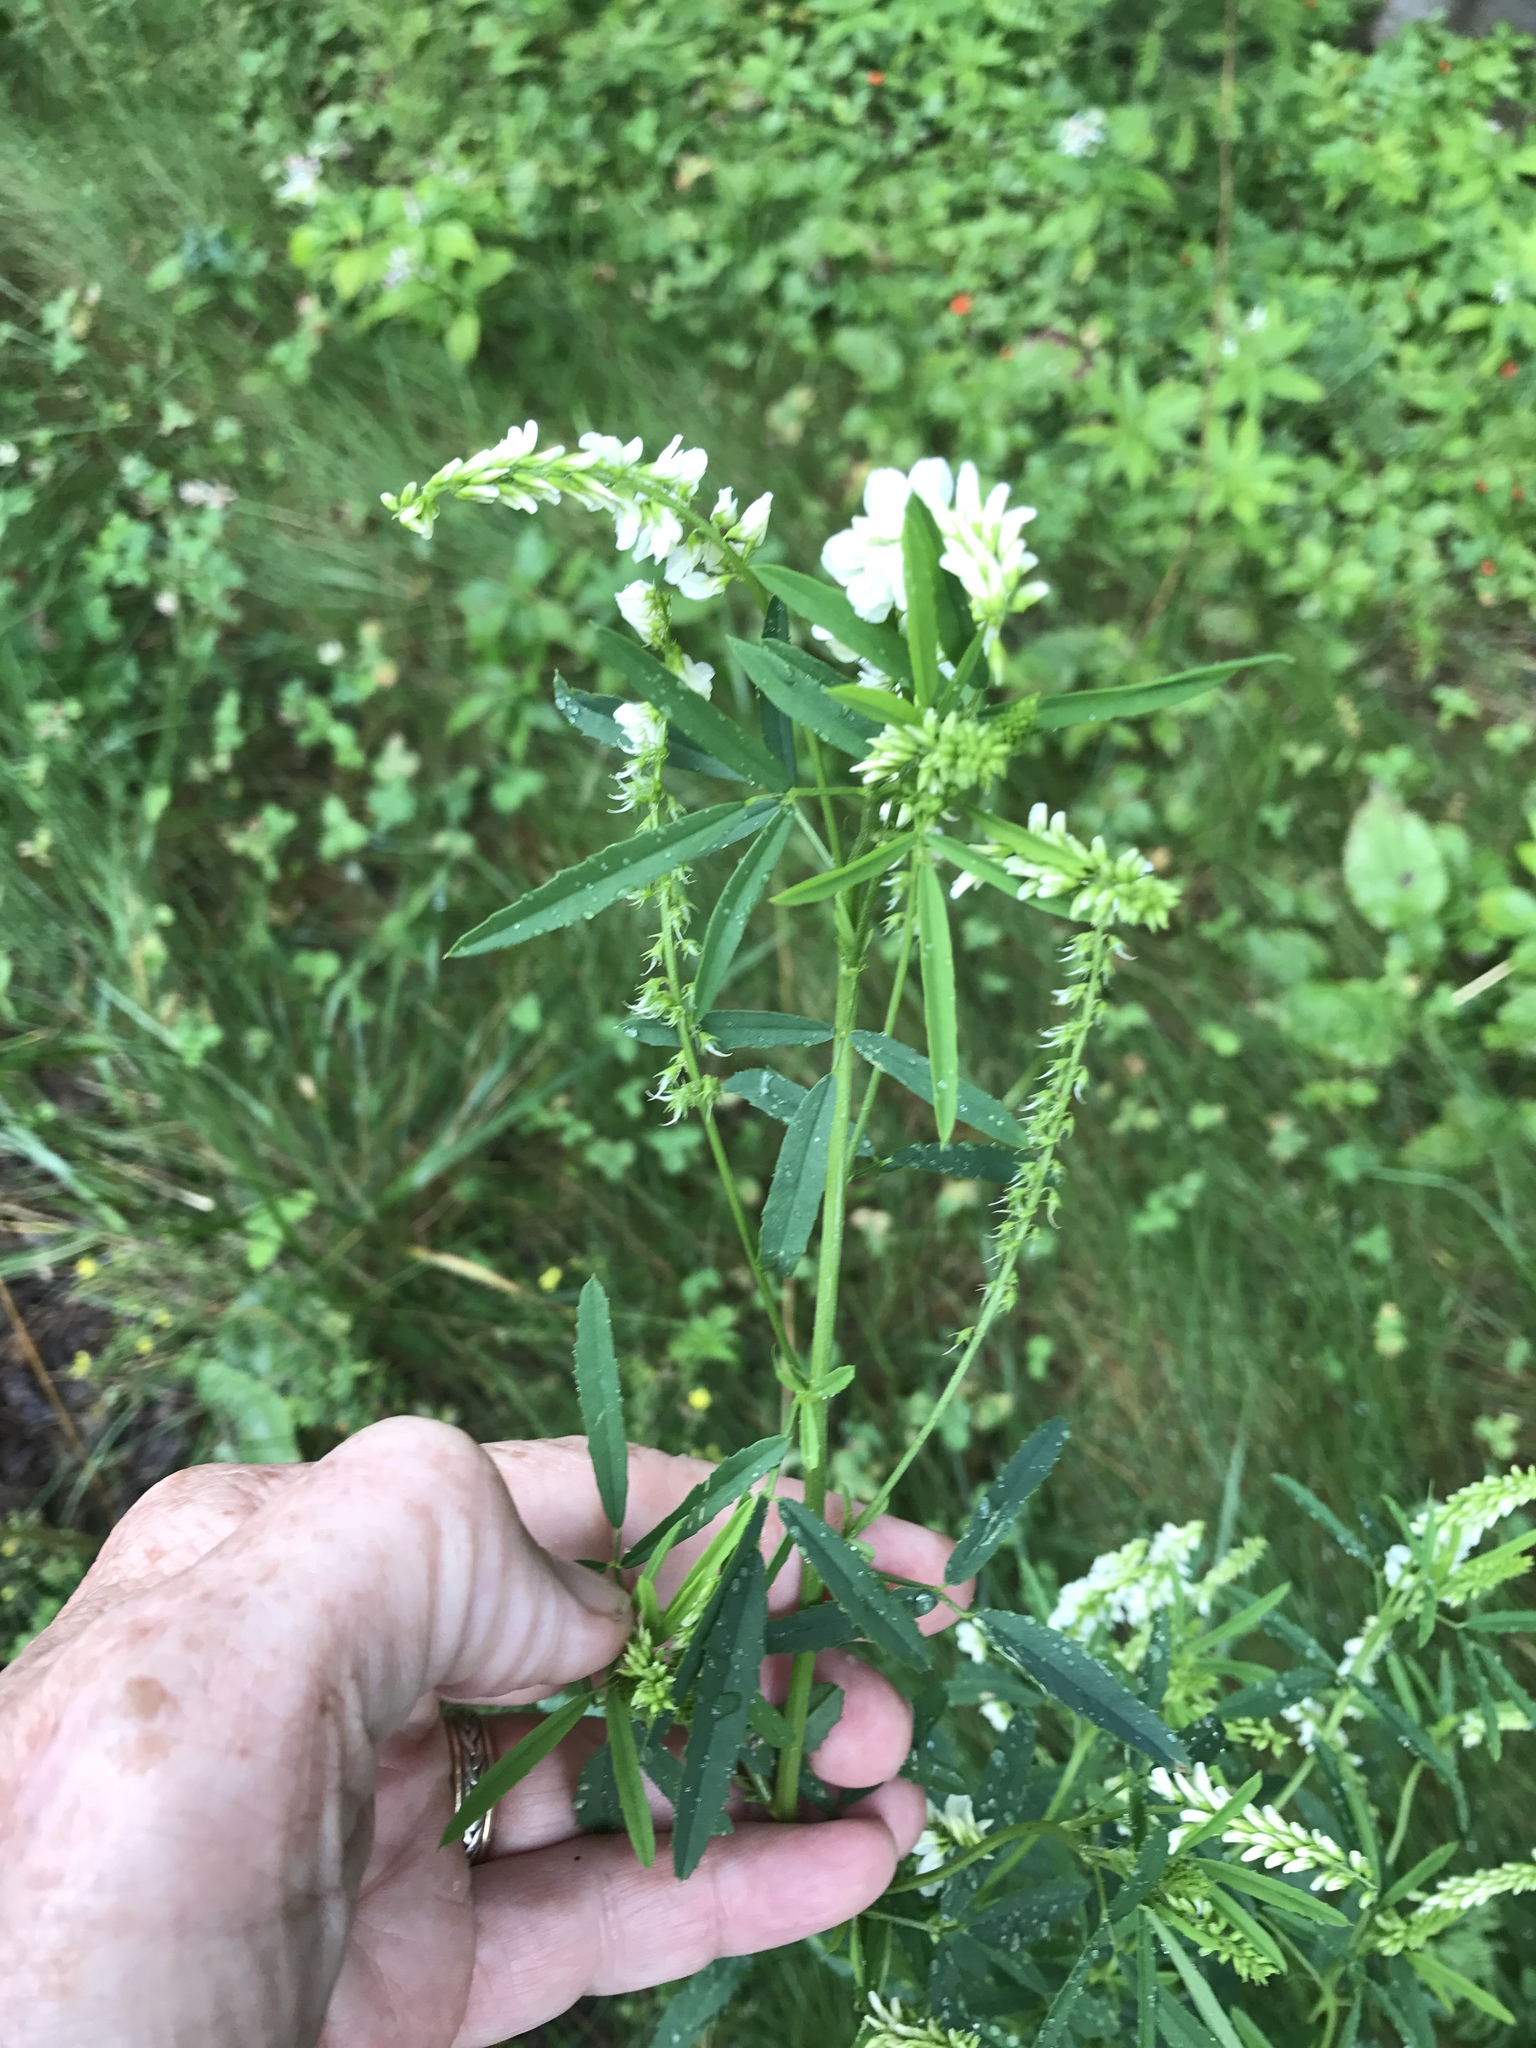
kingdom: Plantae
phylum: Tracheophyta
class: Magnoliopsida
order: Fabales
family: Fabaceae
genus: Melilotus
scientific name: Melilotus albus
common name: White melilot
